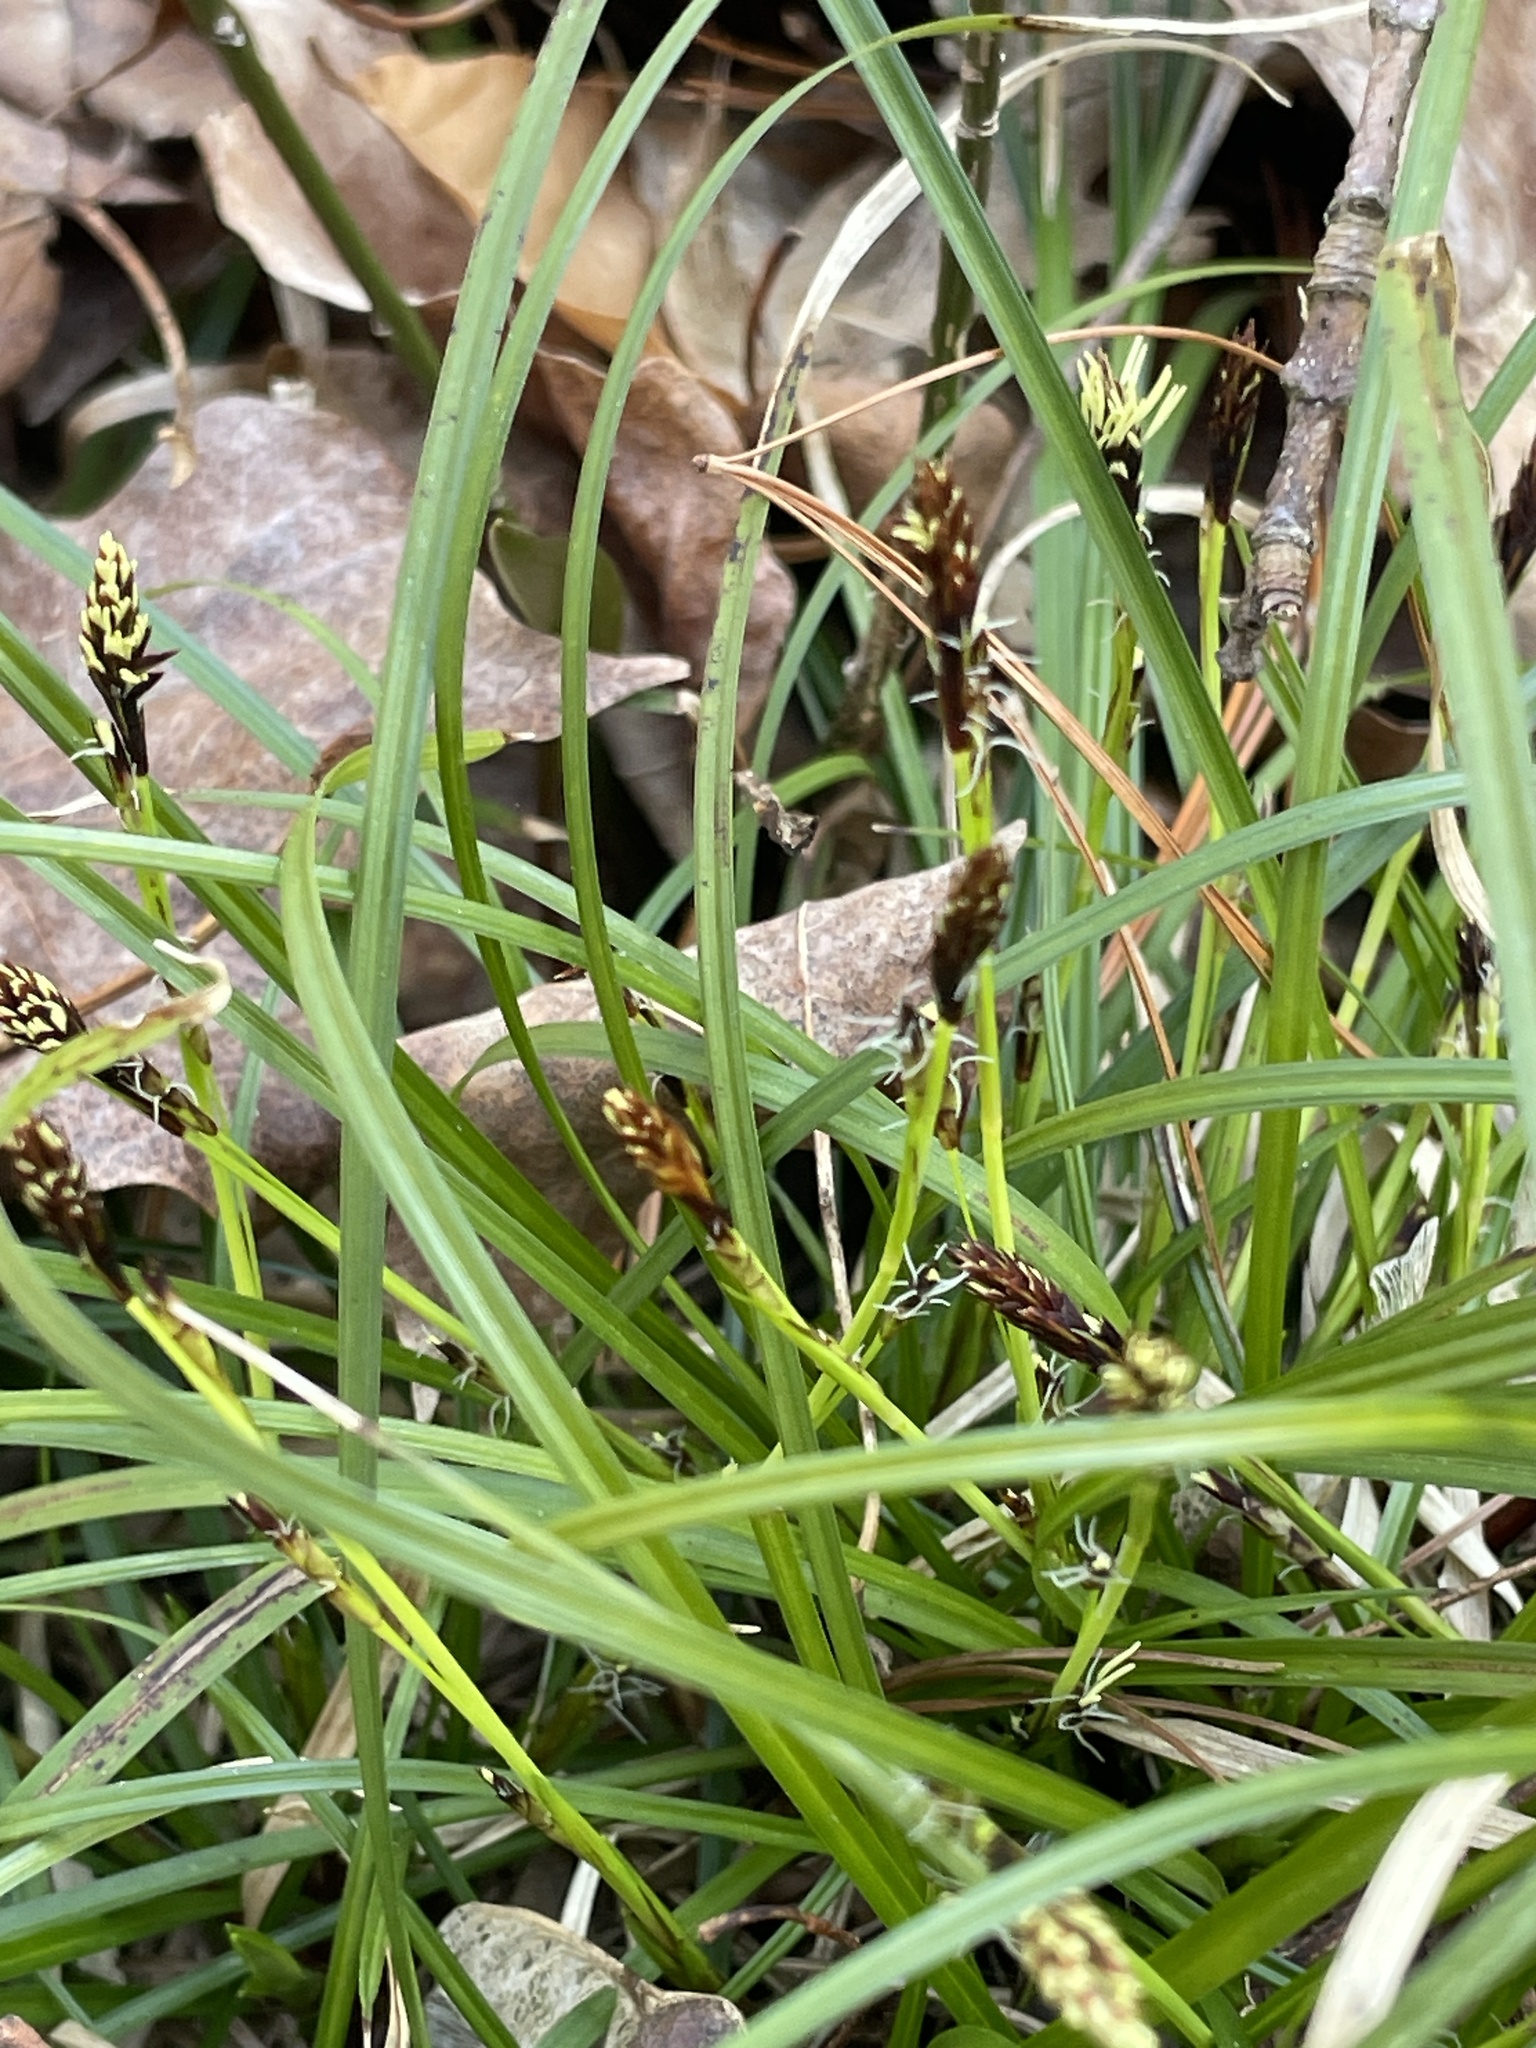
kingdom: Plantae
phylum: Tracheophyta
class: Liliopsida
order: Poales
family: Cyperaceae
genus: Carex
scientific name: Carex pedunculata
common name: Pedunculate sedge
